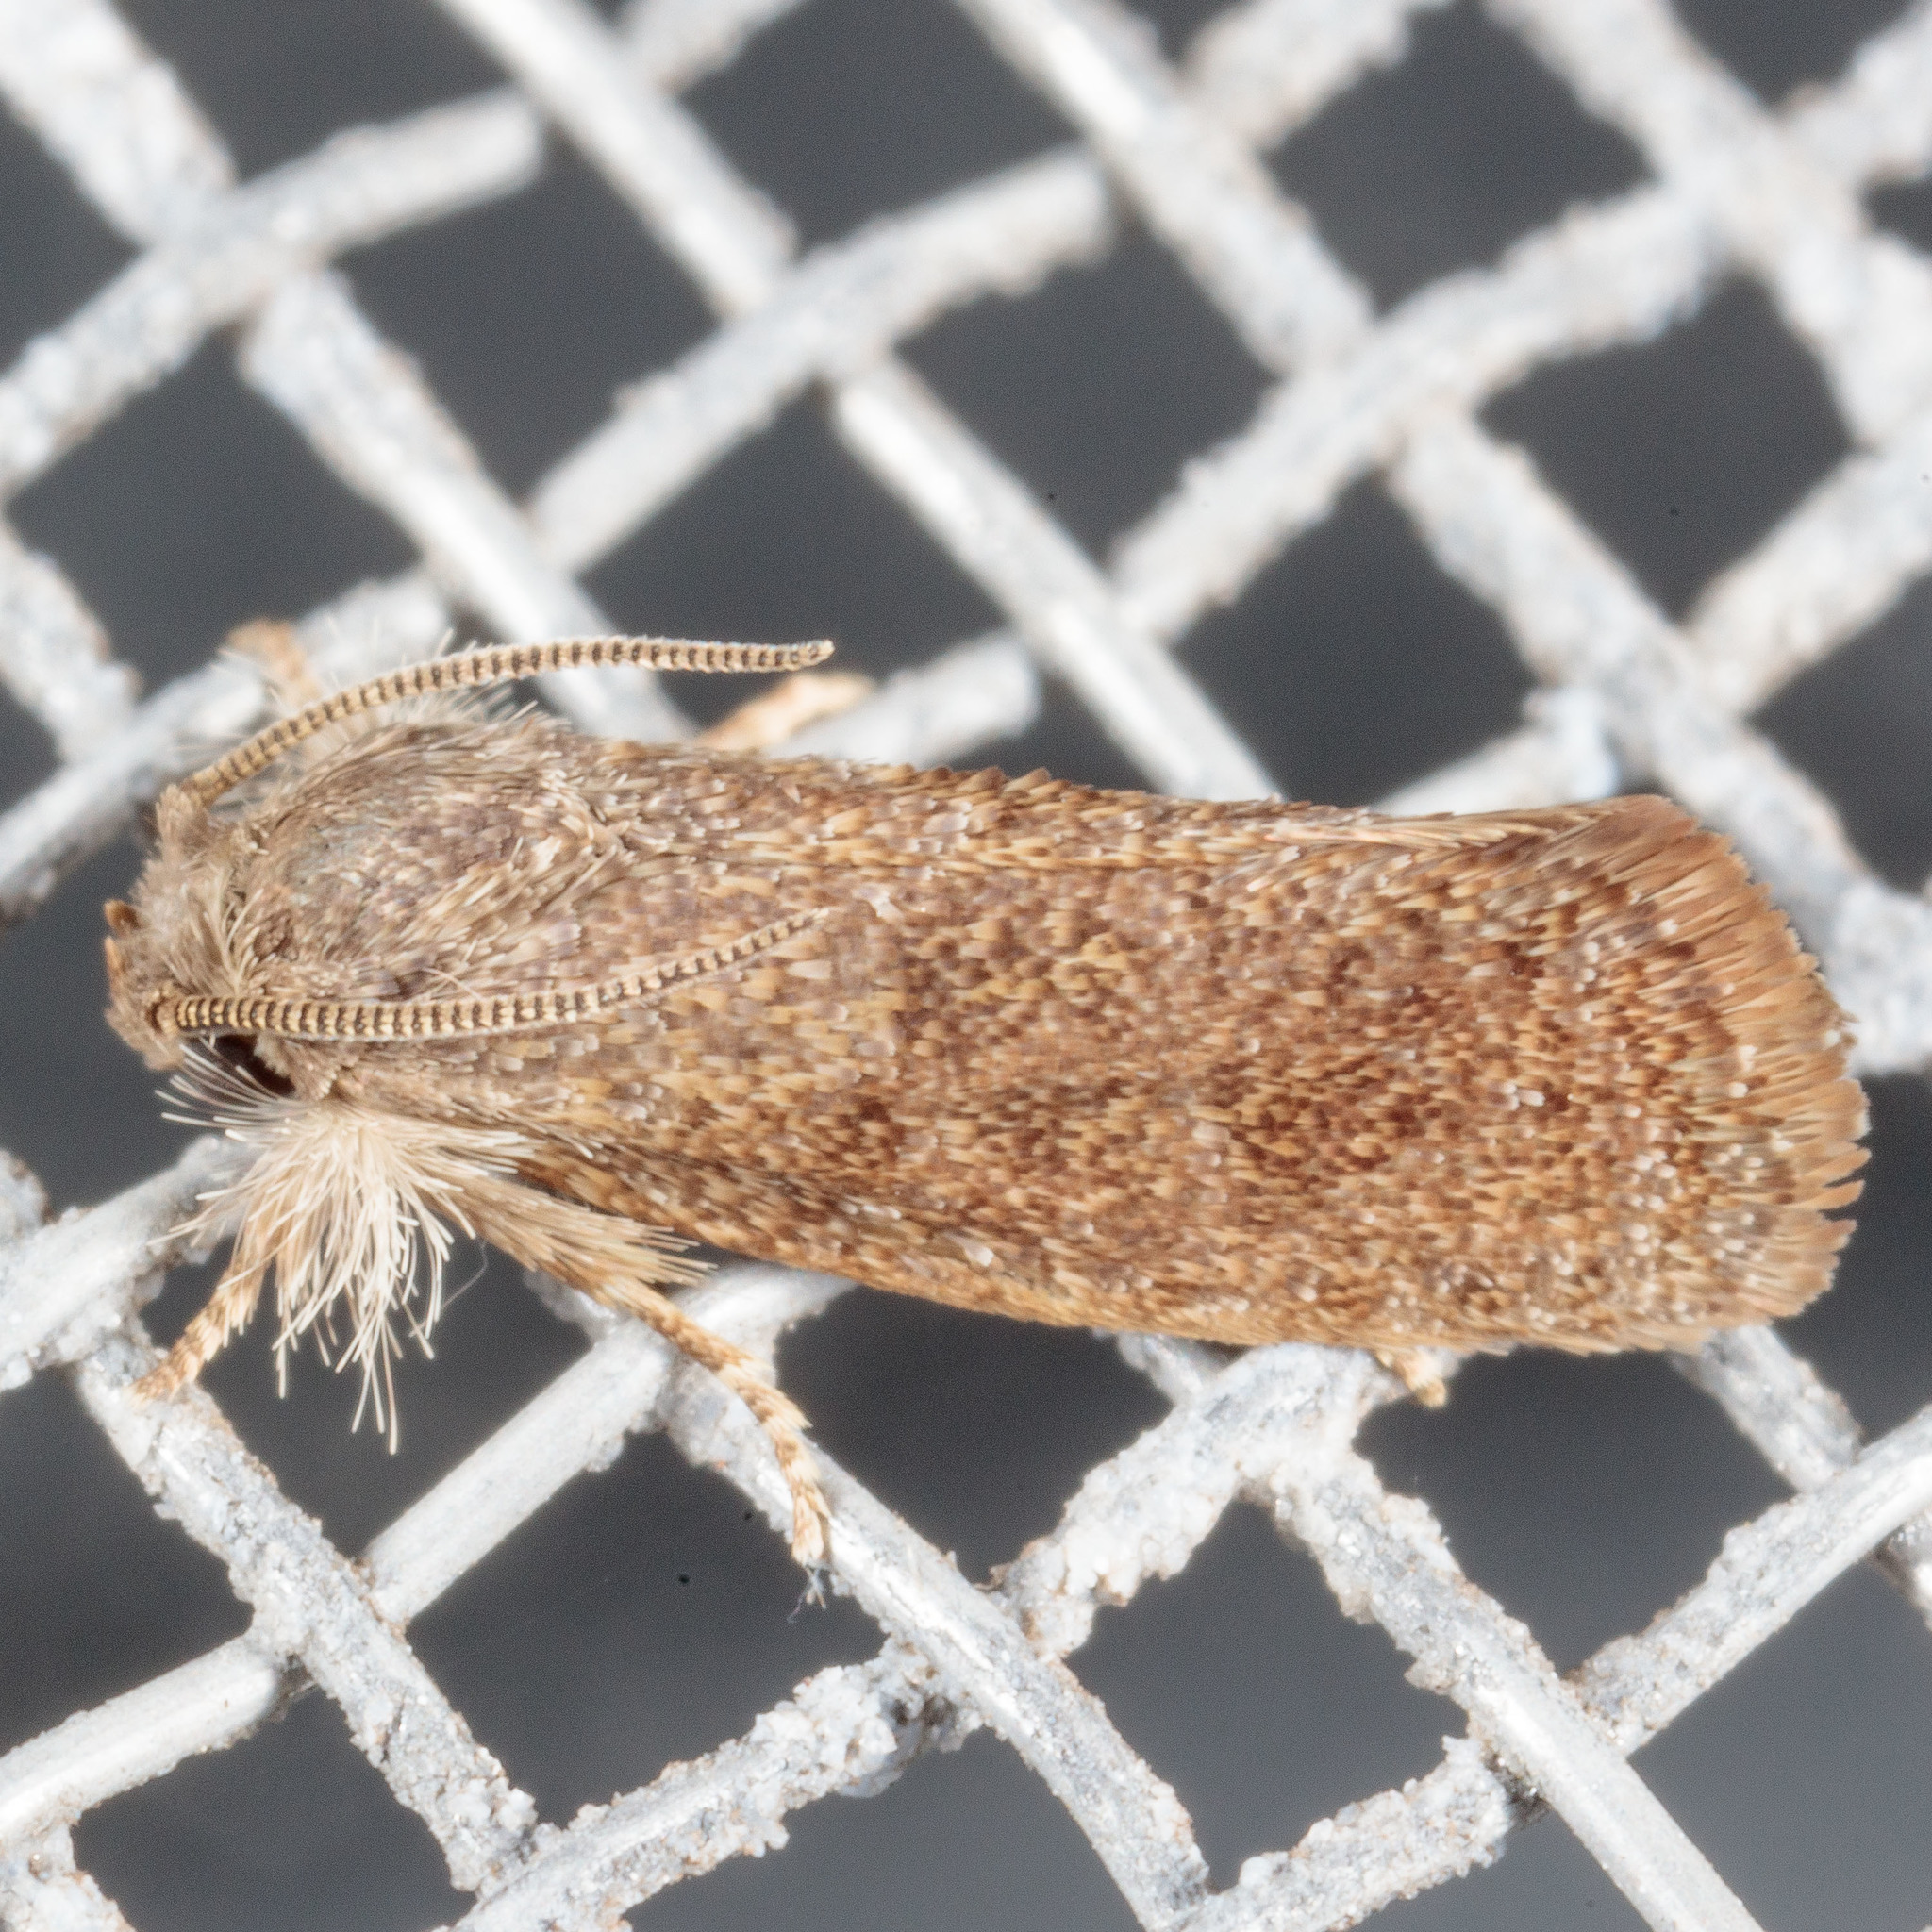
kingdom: Animalia
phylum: Arthropoda
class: Insecta
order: Lepidoptera
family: Tineidae
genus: Acrolophus
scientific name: Acrolophus heppneri
